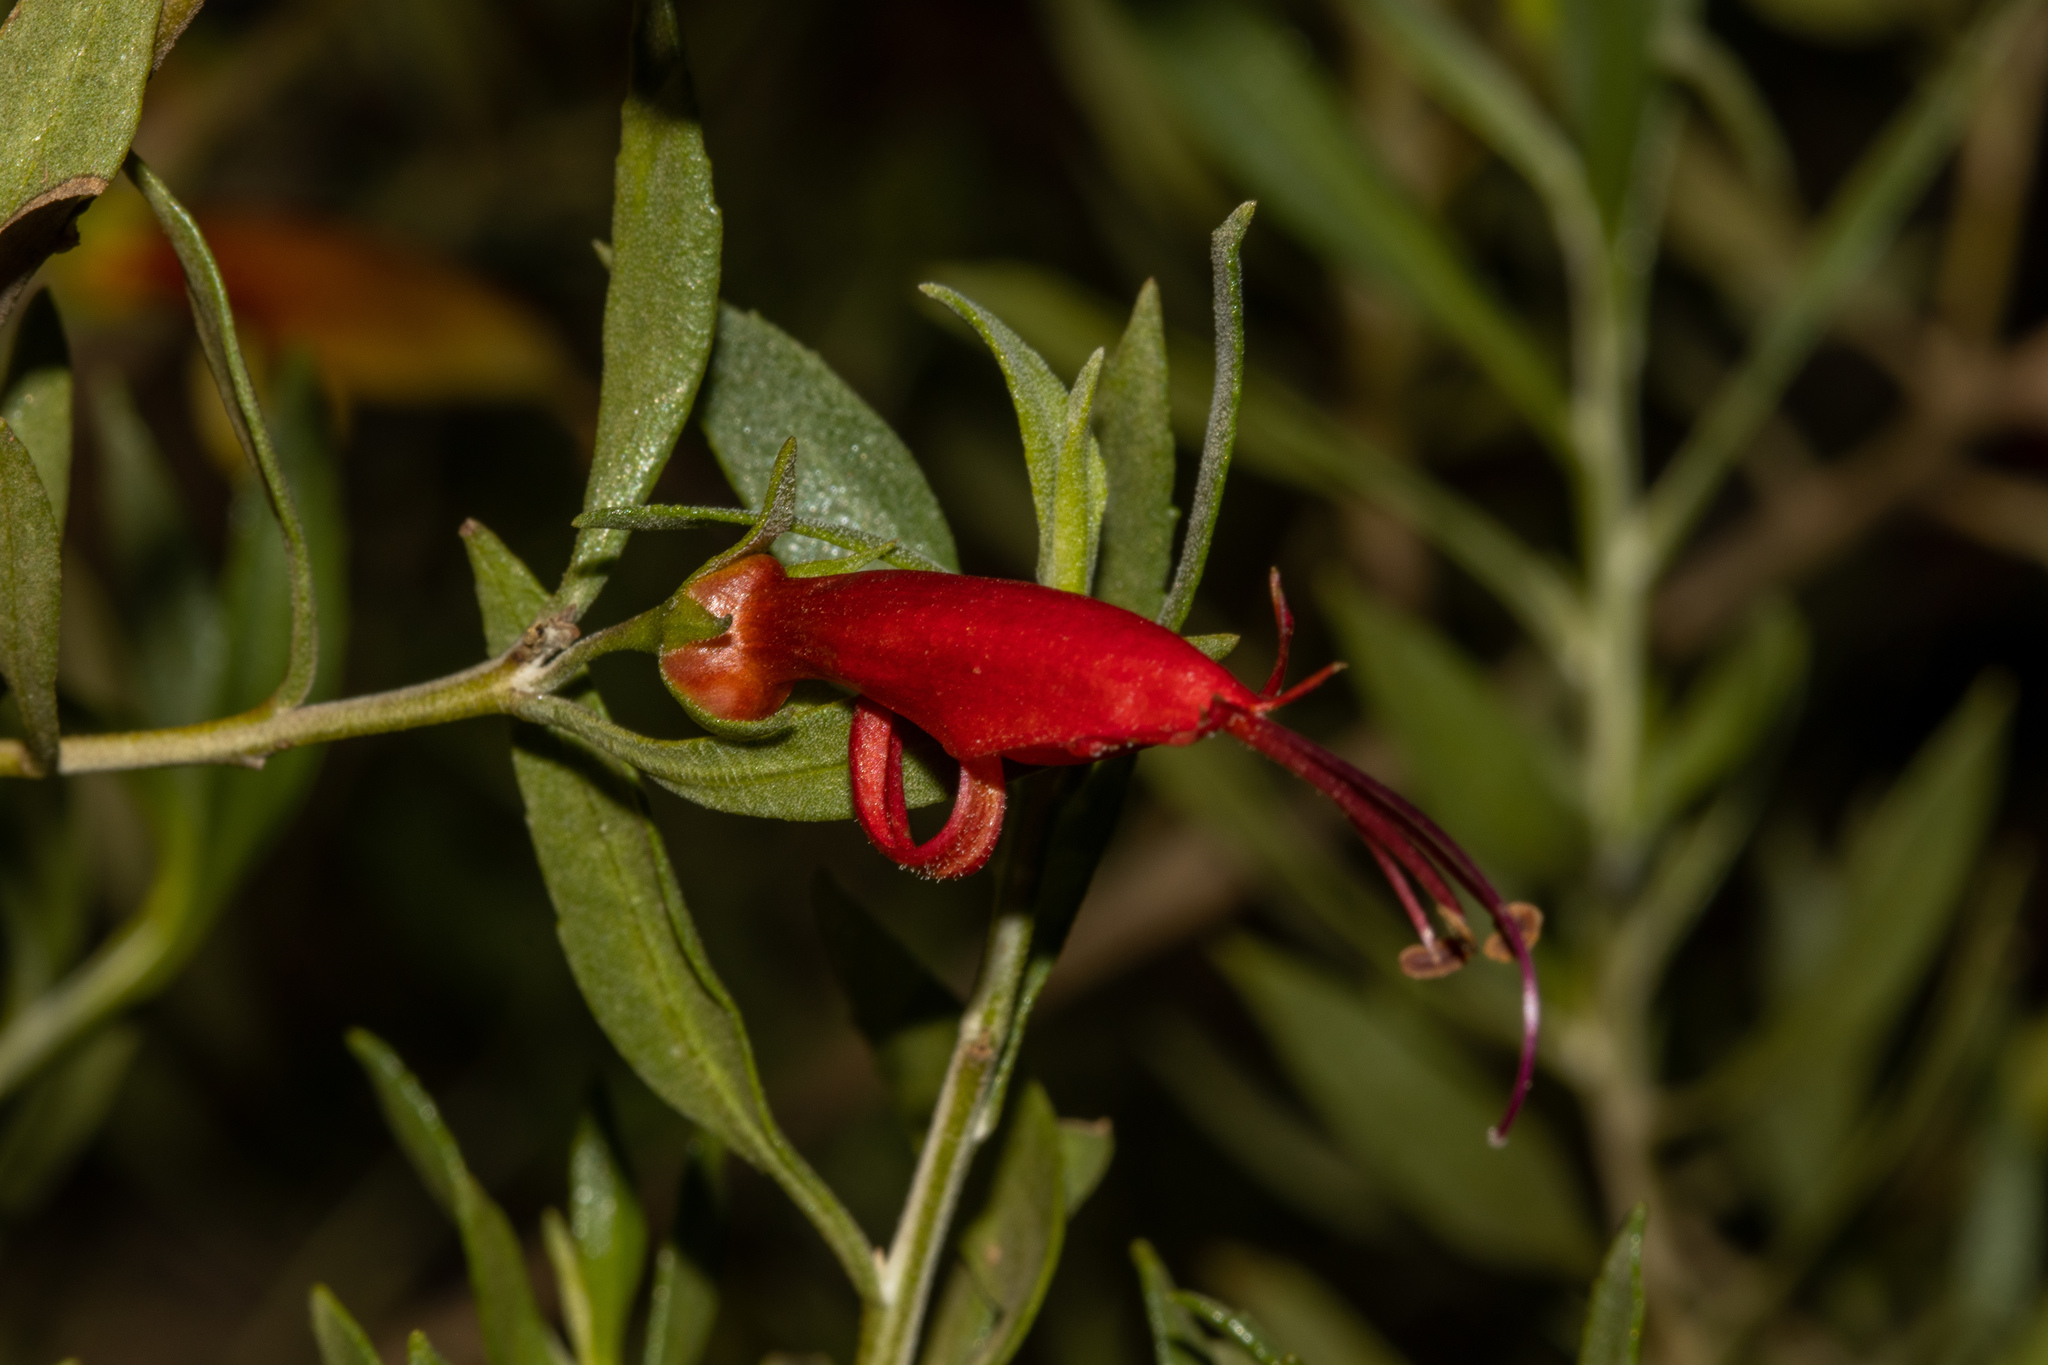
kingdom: Plantae
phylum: Tracheophyta
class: Magnoliopsida
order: Lamiales
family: Scrophulariaceae
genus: Eremophila
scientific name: Eremophila glabra
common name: Black-fuchsia
